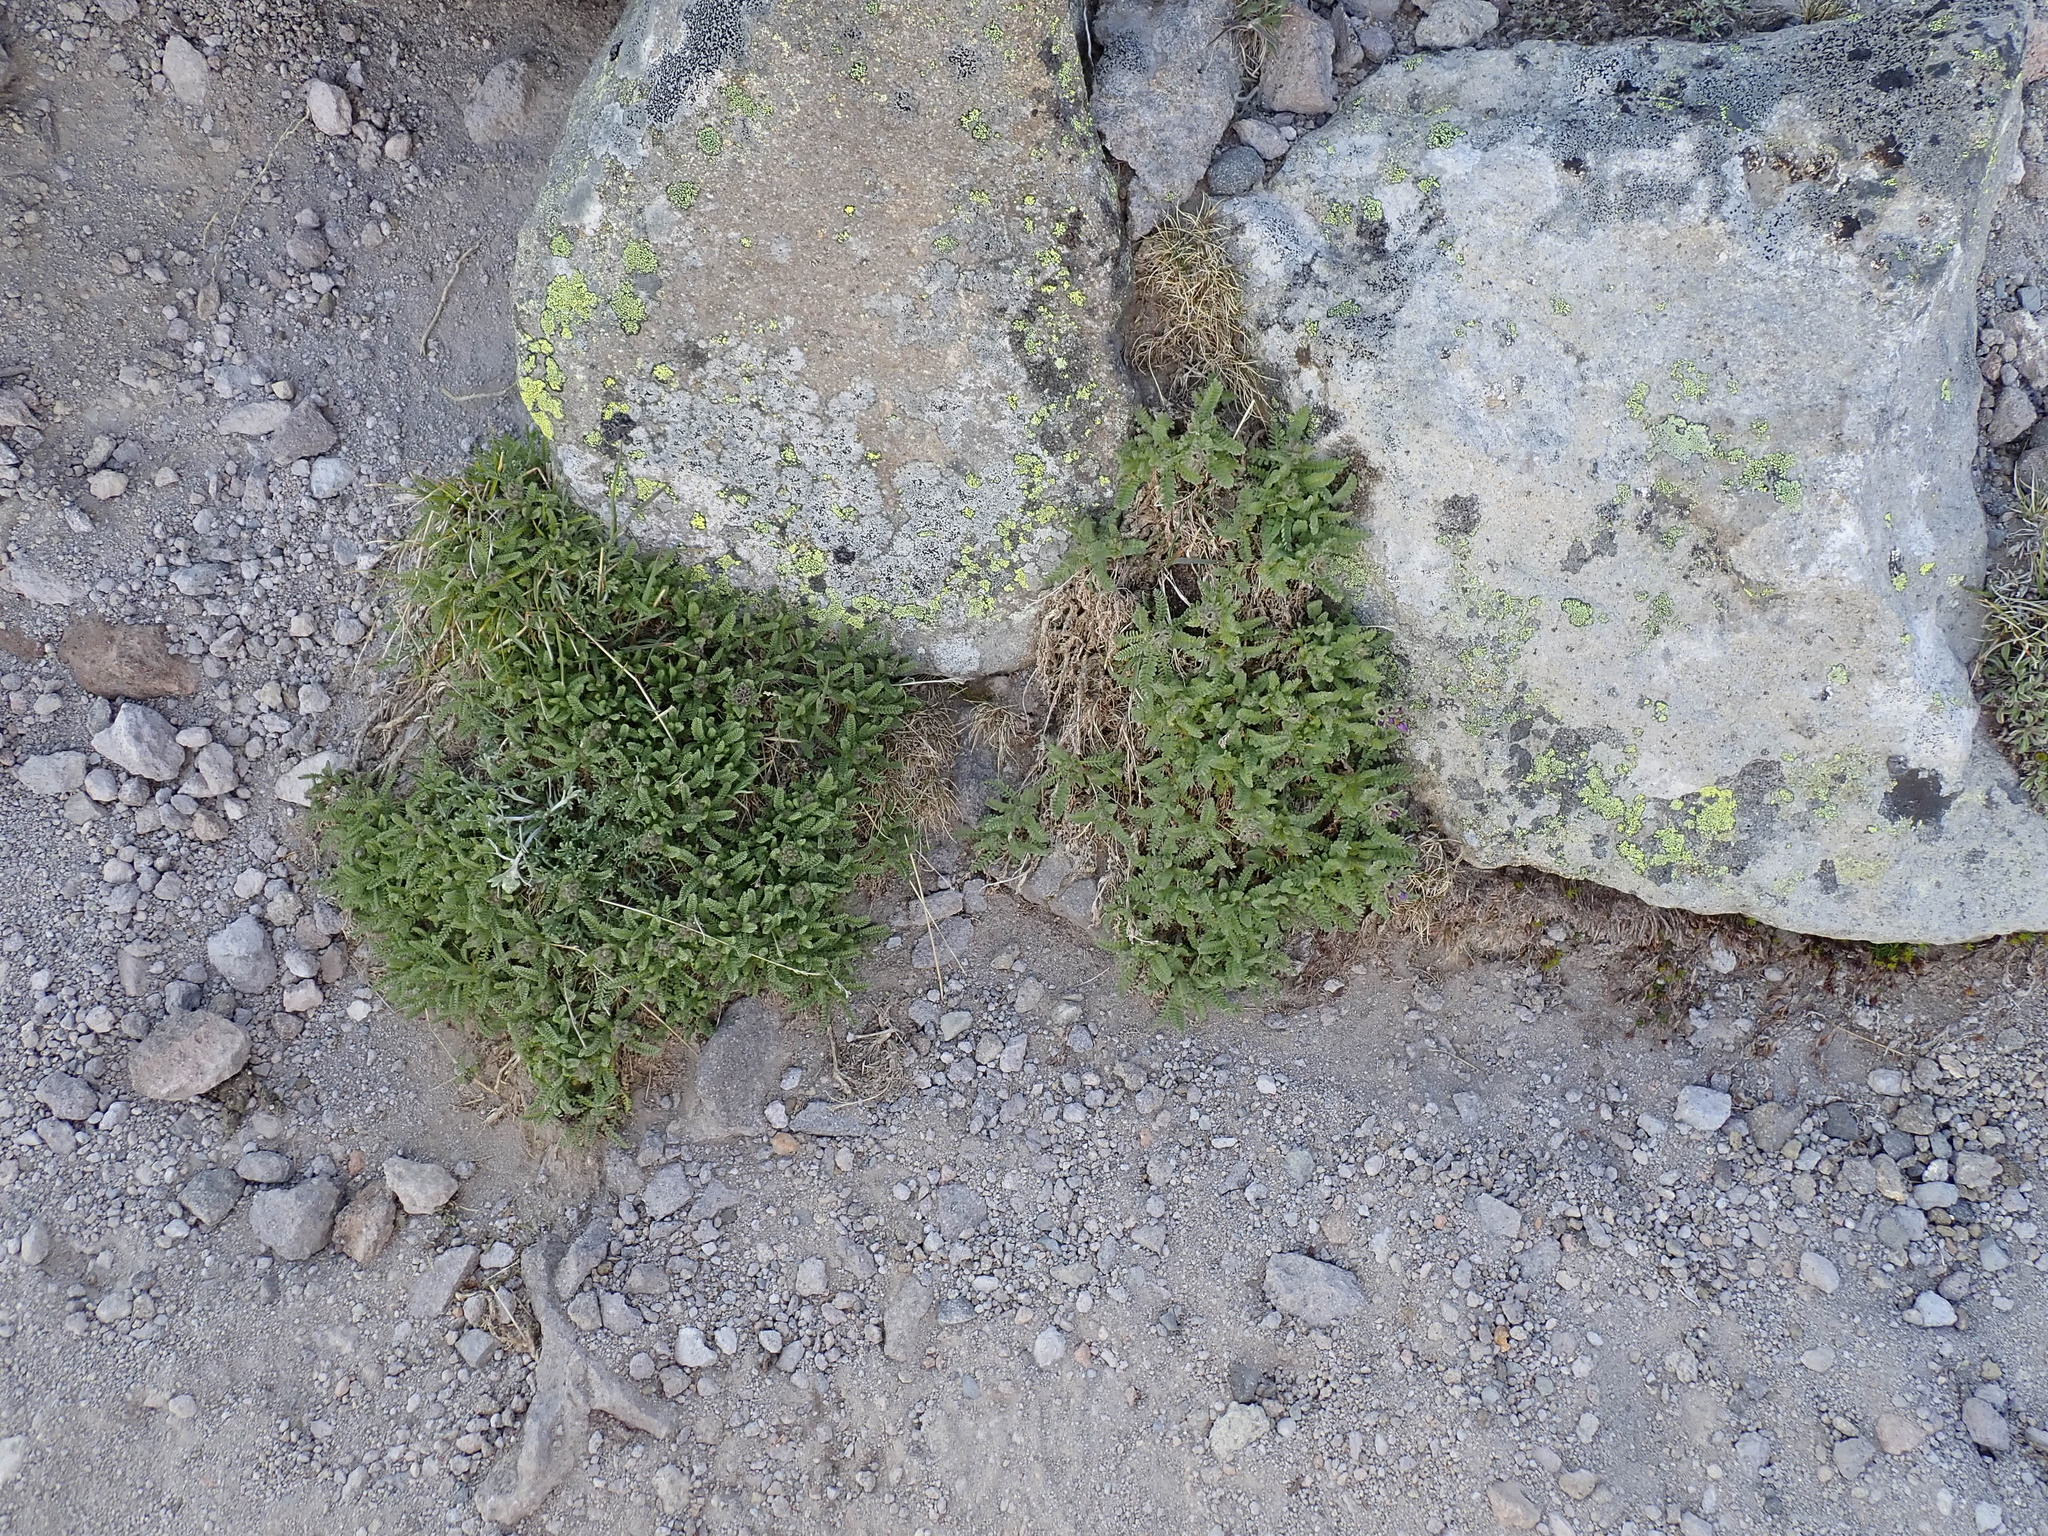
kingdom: Plantae
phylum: Tracheophyta
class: Magnoliopsida
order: Ericales
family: Polemoniaceae
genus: Polemonium
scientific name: Polemonium elegans
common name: Elegant jacob's-ladder
